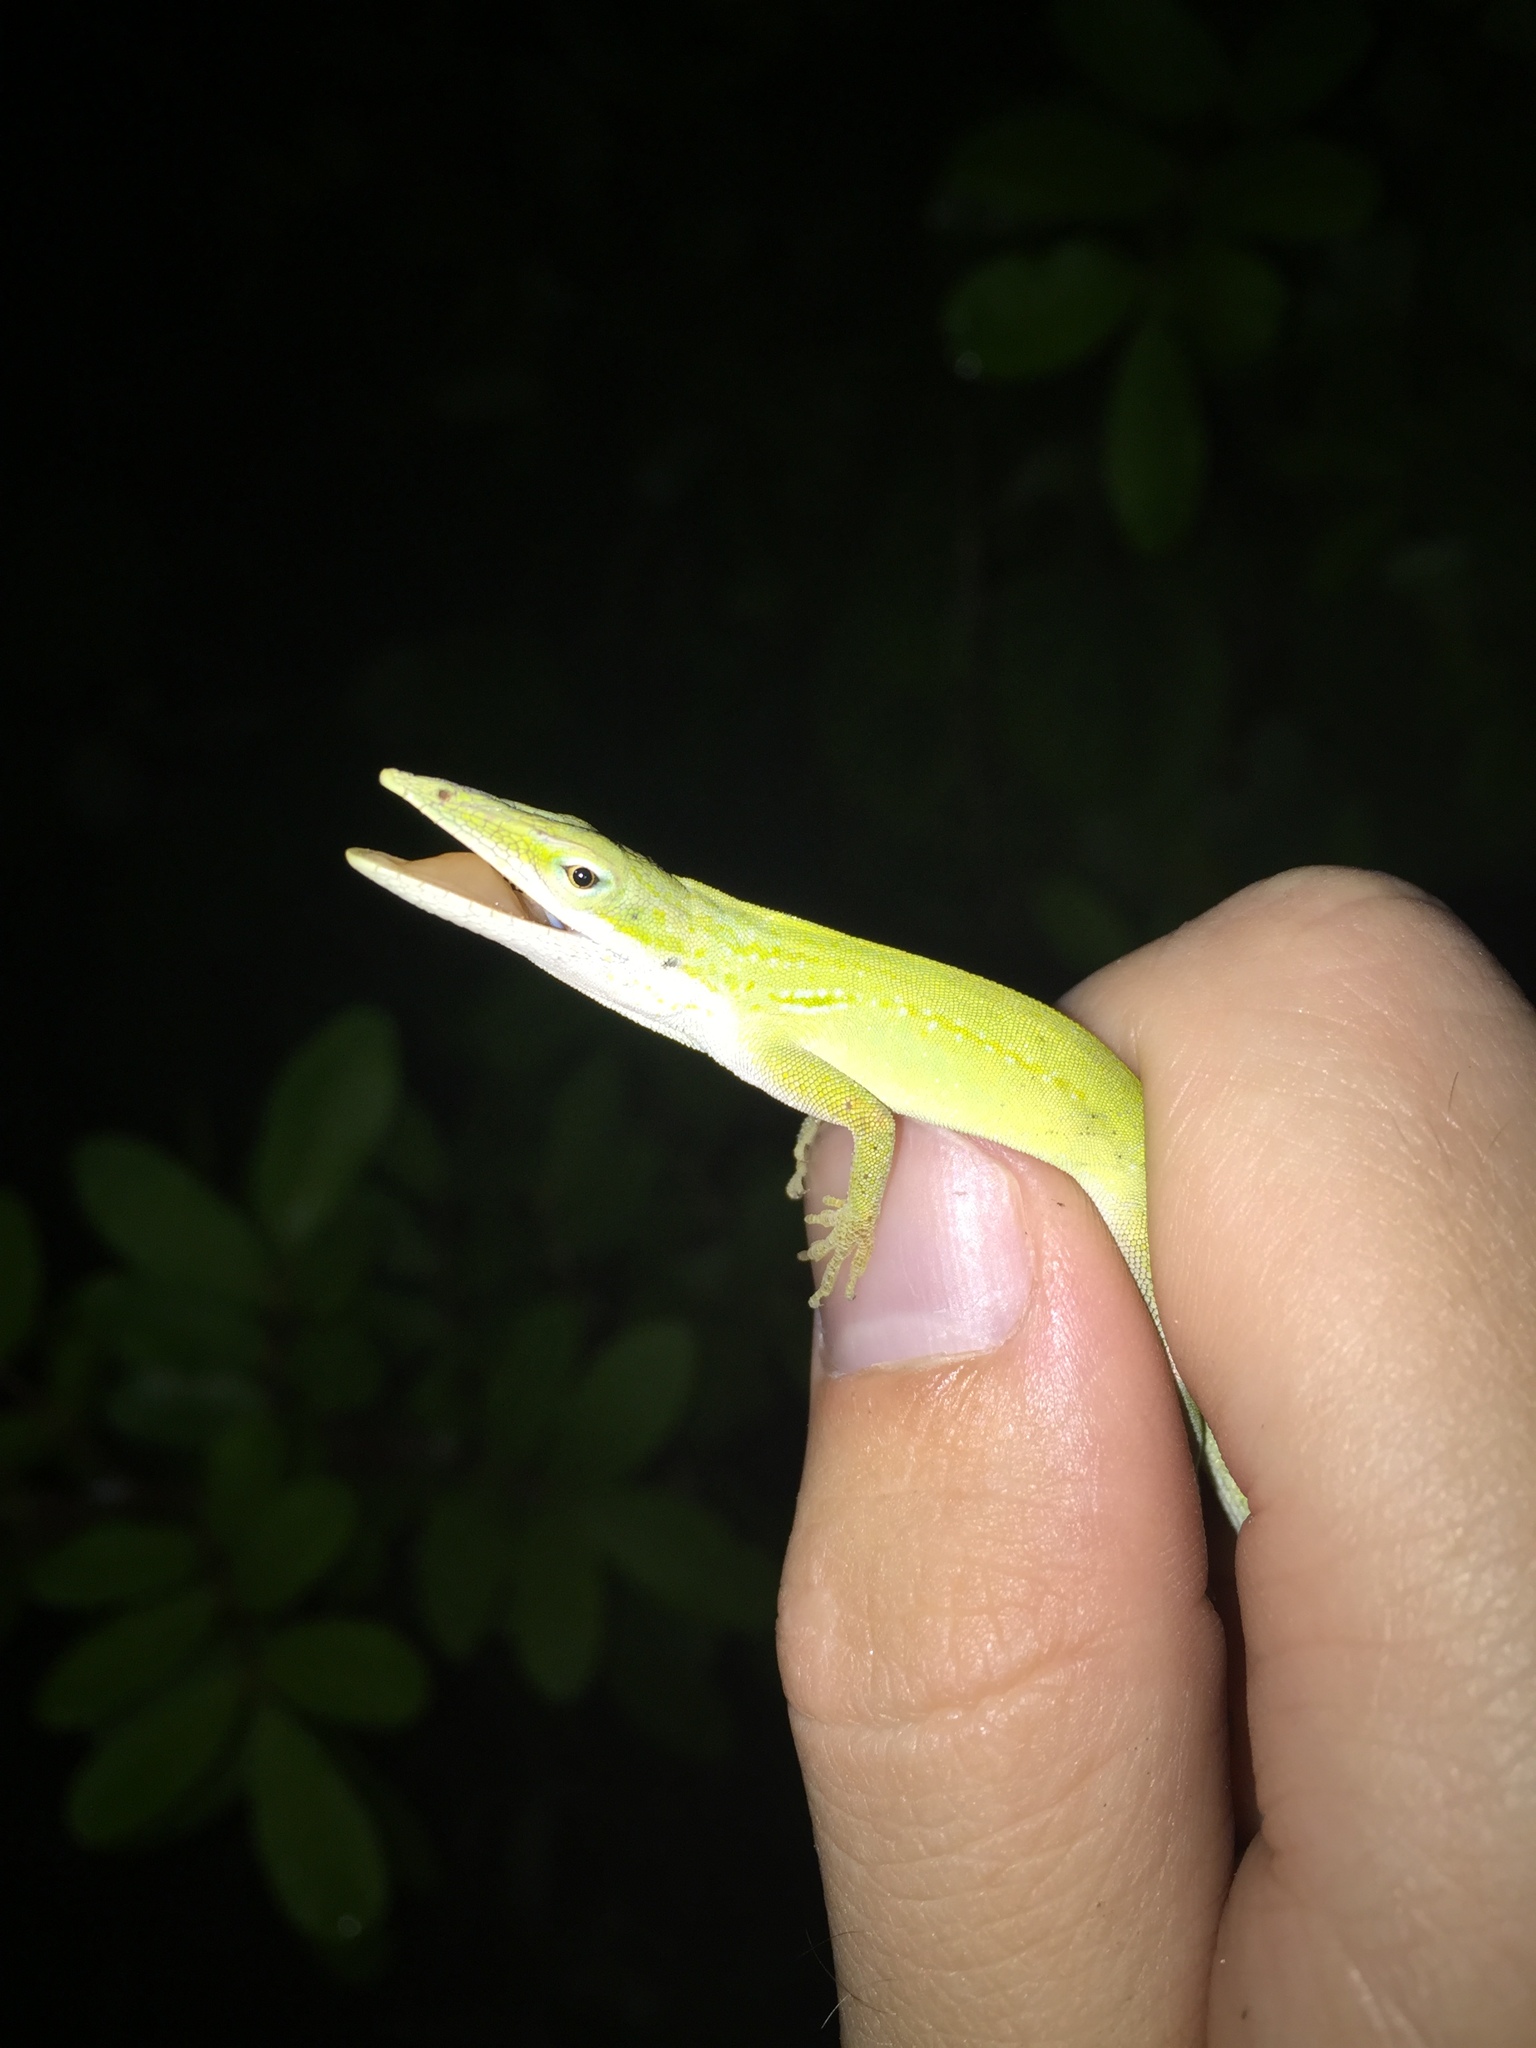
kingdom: Animalia
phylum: Chordata
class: Squamata
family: Dactyloidae
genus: Anolis
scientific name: Anolis carolinensis
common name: Green anole
